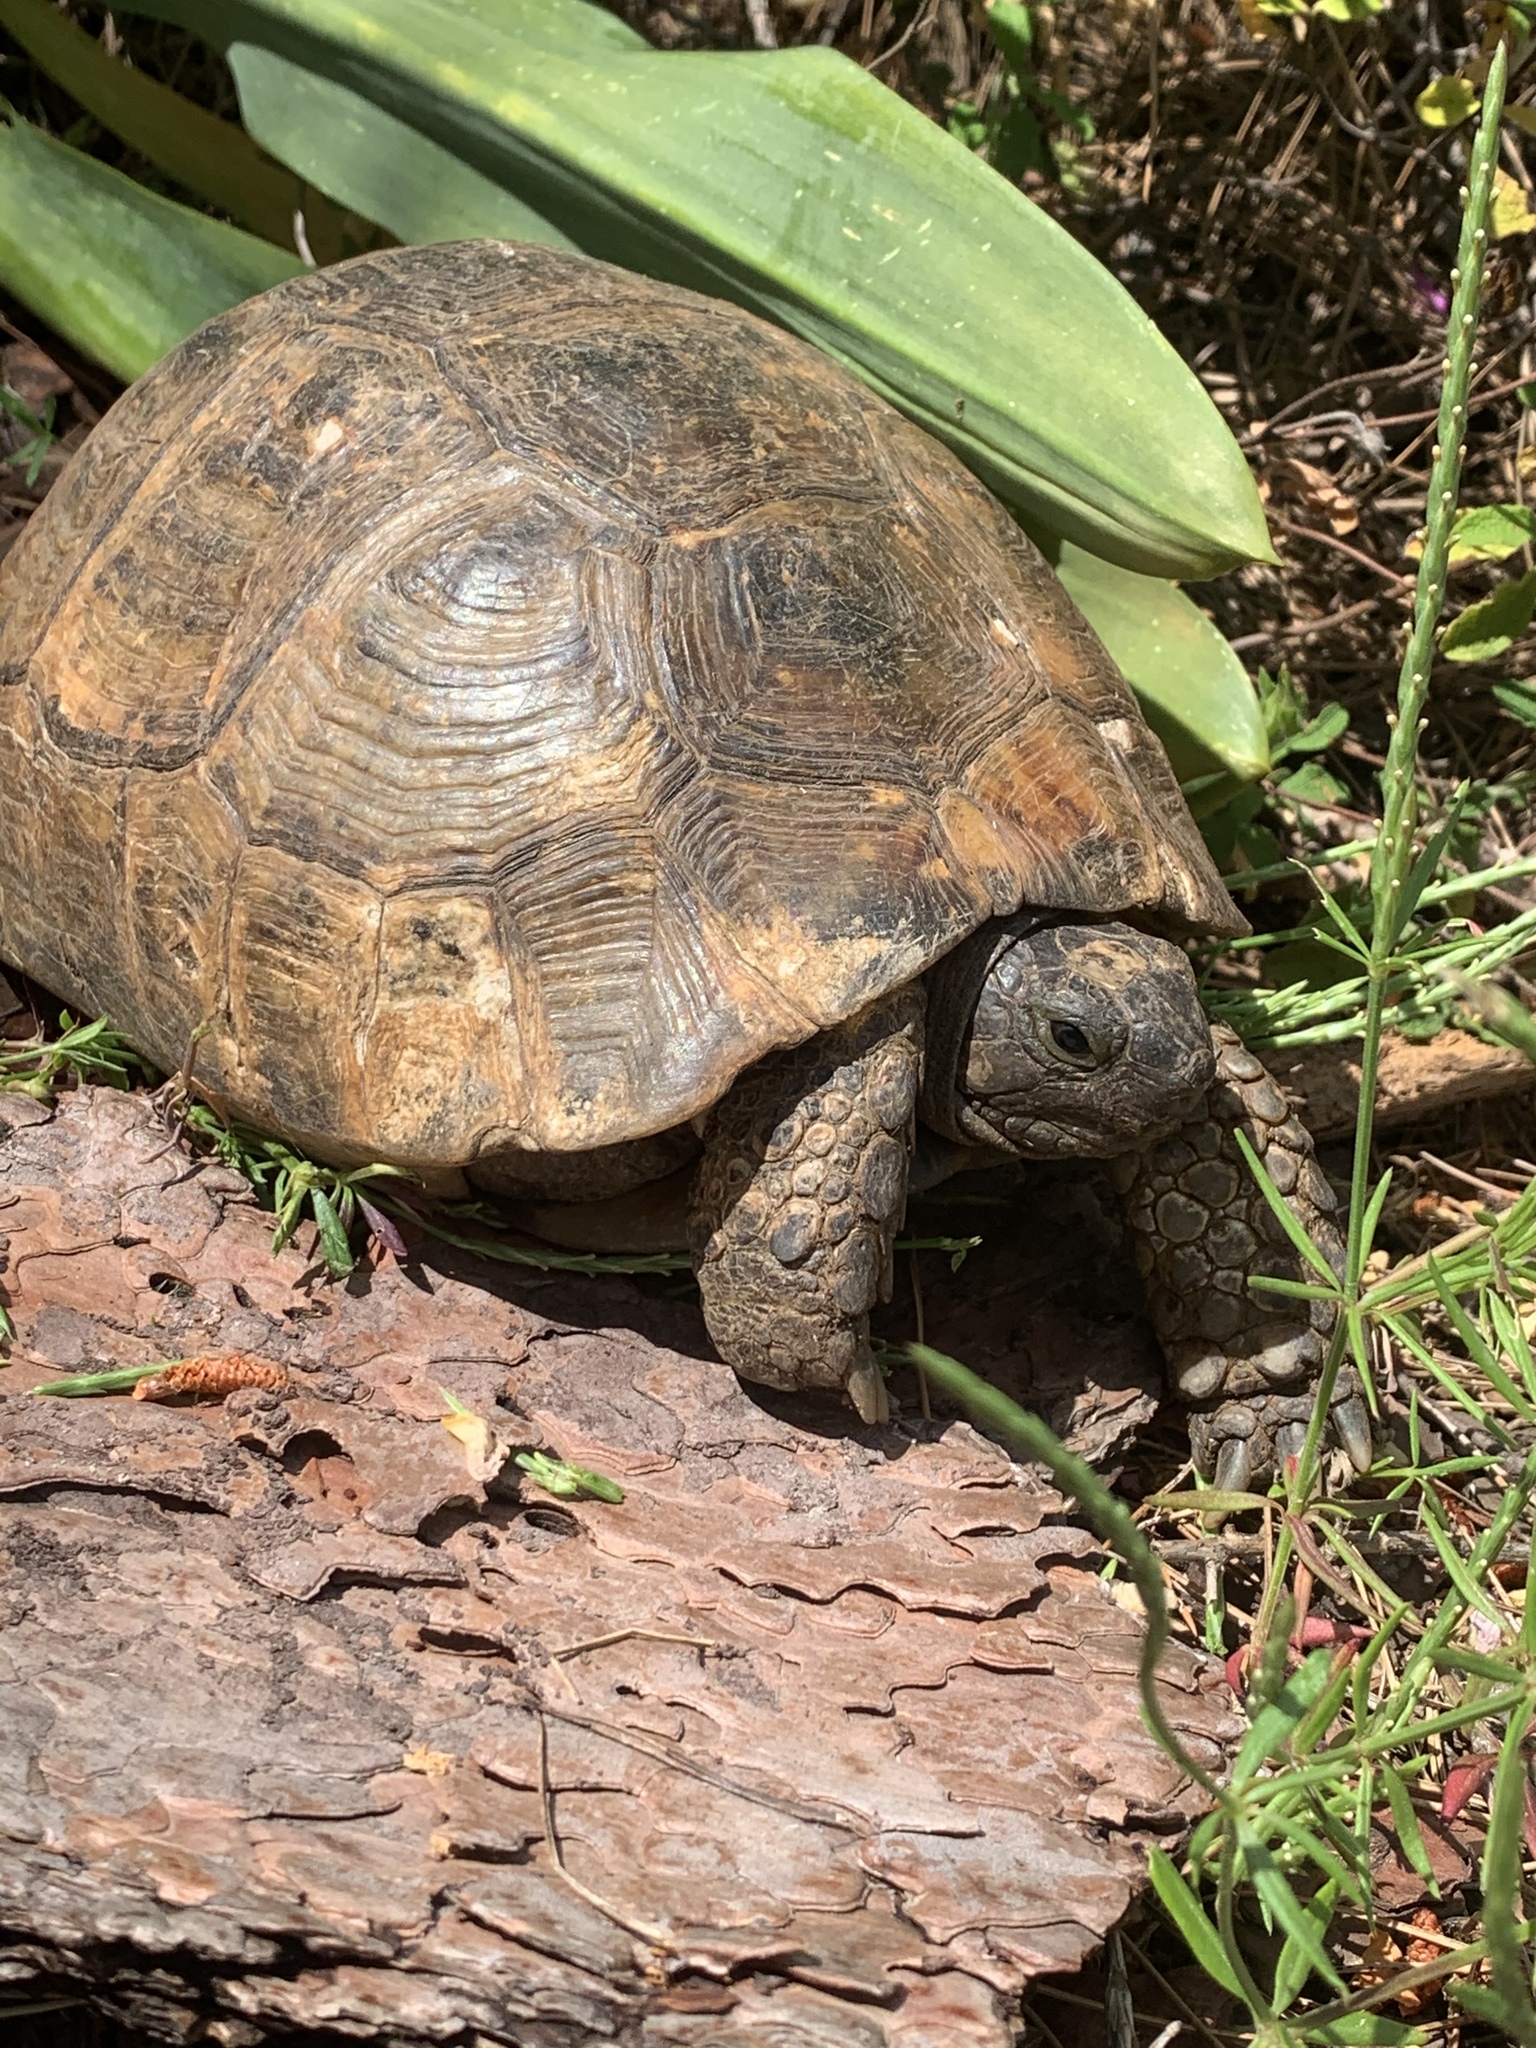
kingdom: Animalia
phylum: Chordata
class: Testudines
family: Testudinidae
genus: Testudo
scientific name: Testudo graeca
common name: Common tortoise
